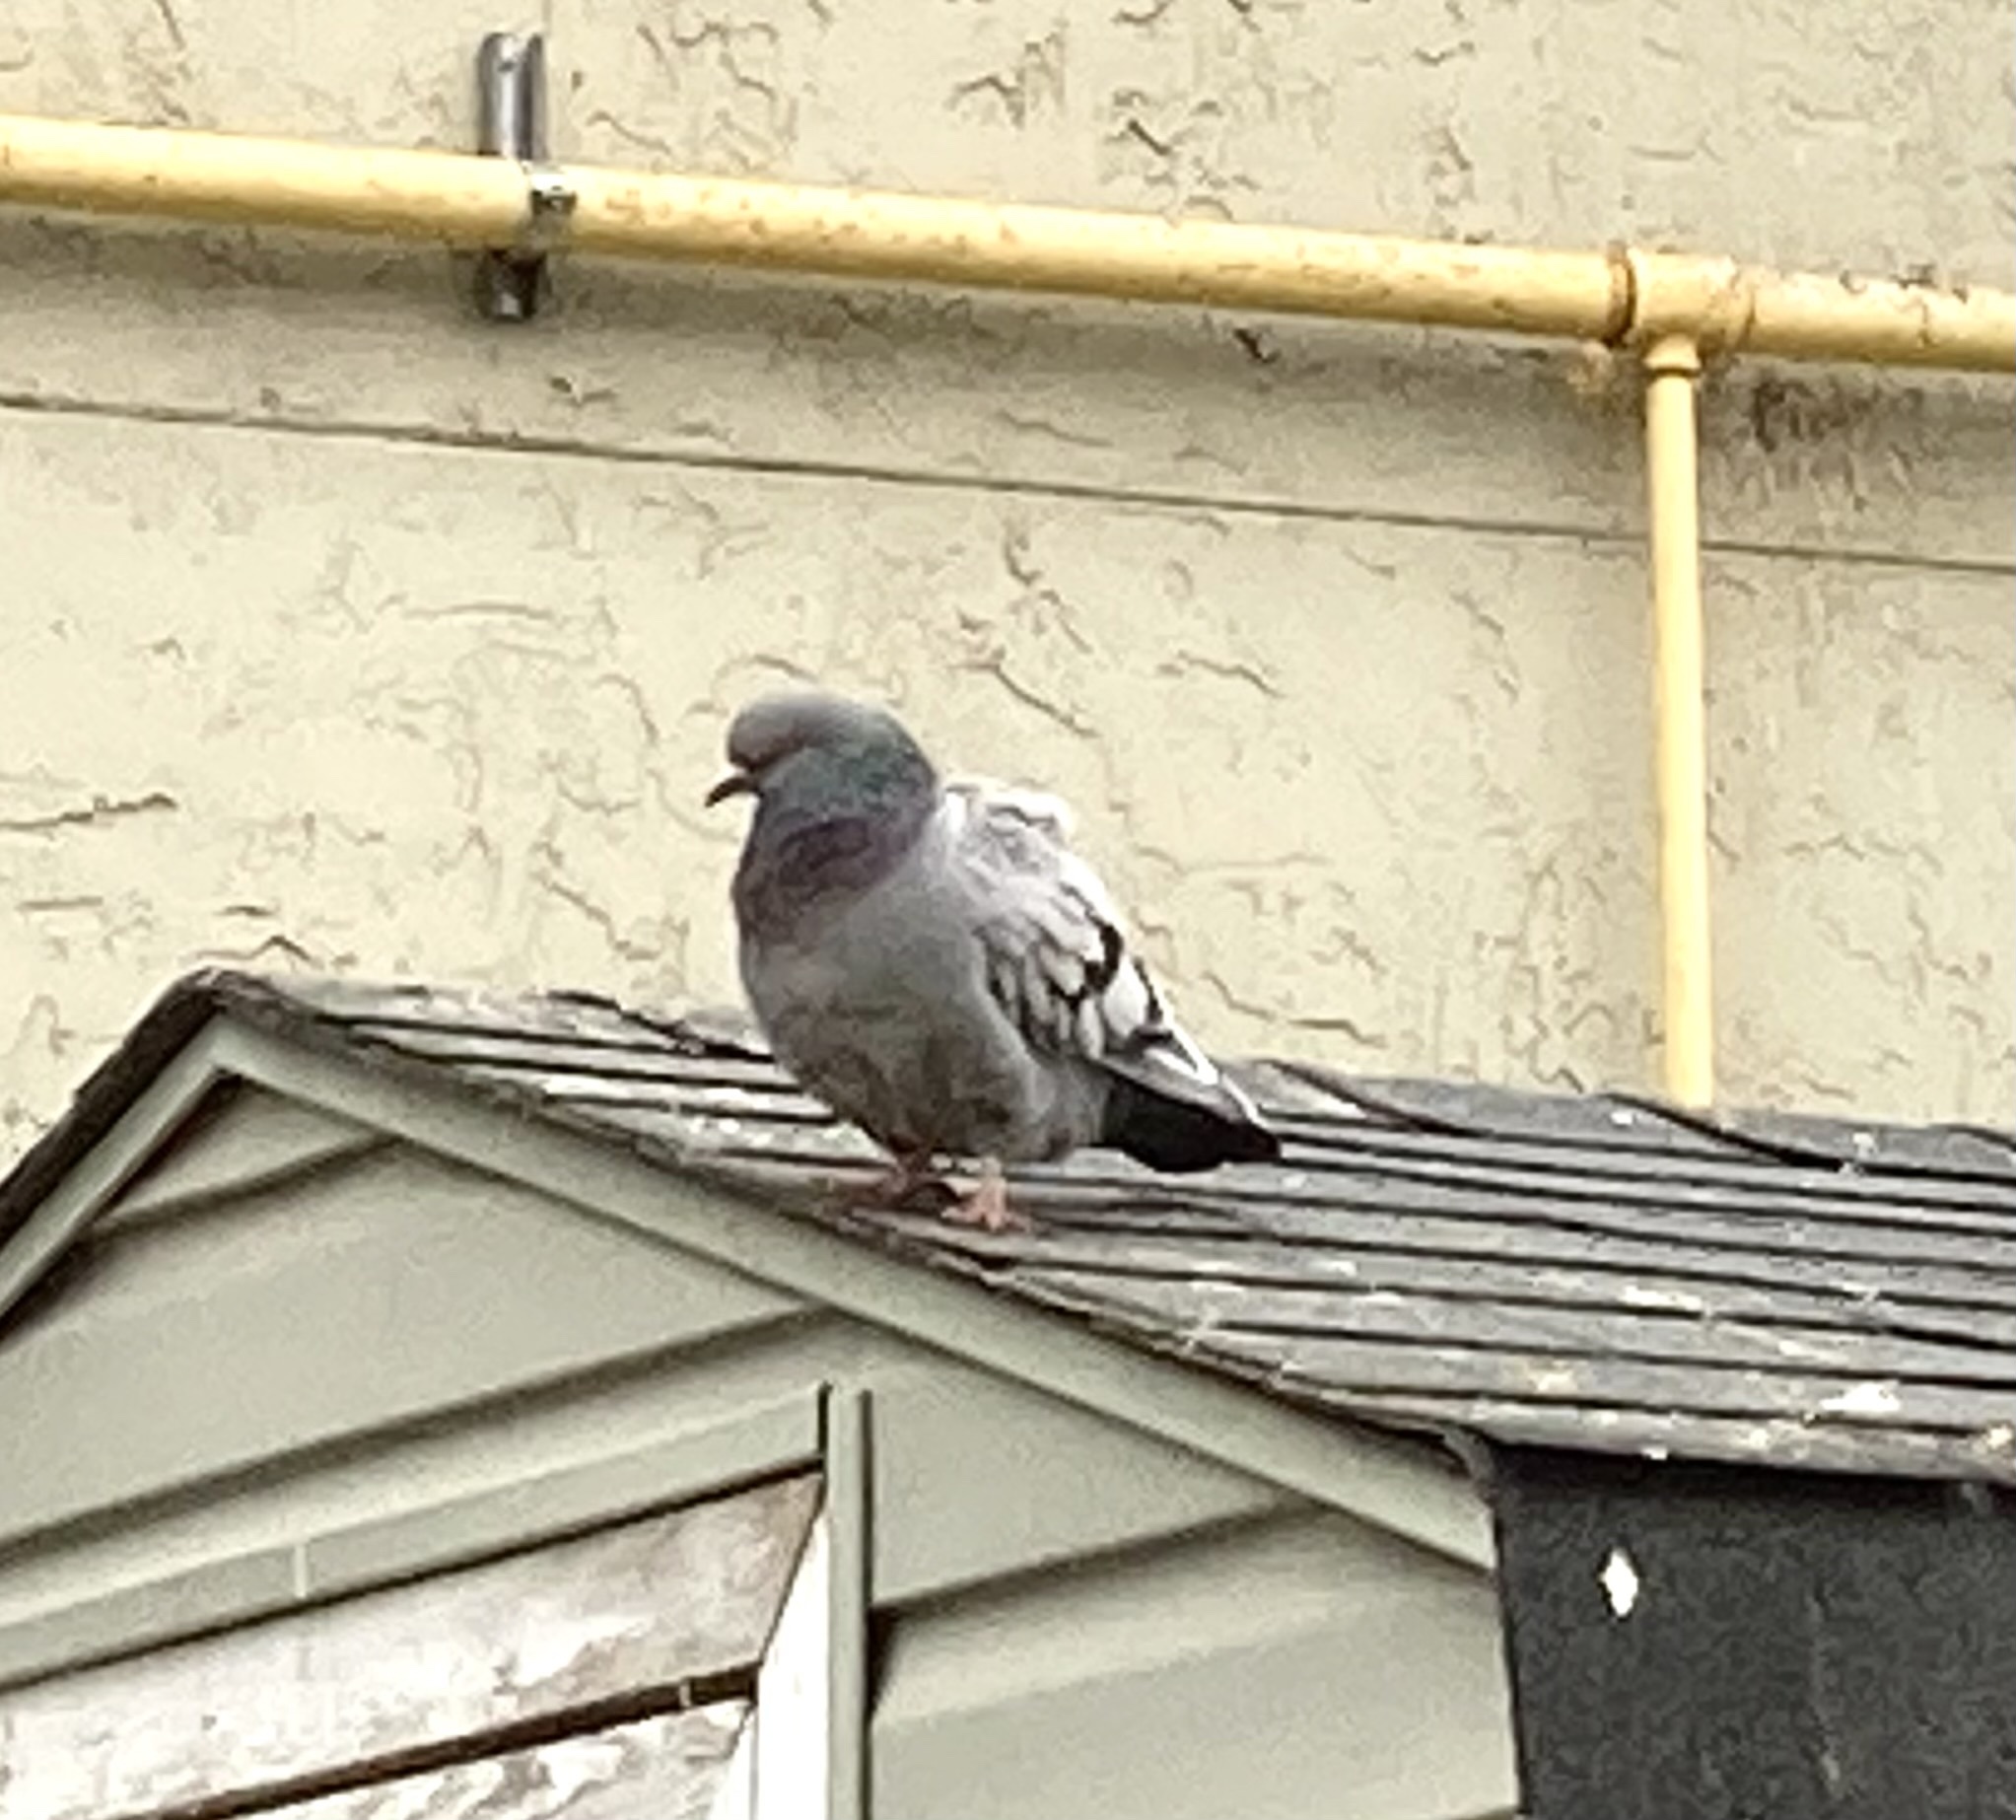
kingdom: Animalia
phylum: Chordata
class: Aves
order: Columbiformes
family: Columbidae
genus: Columba
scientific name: Columba livia
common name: Rock pigeon
